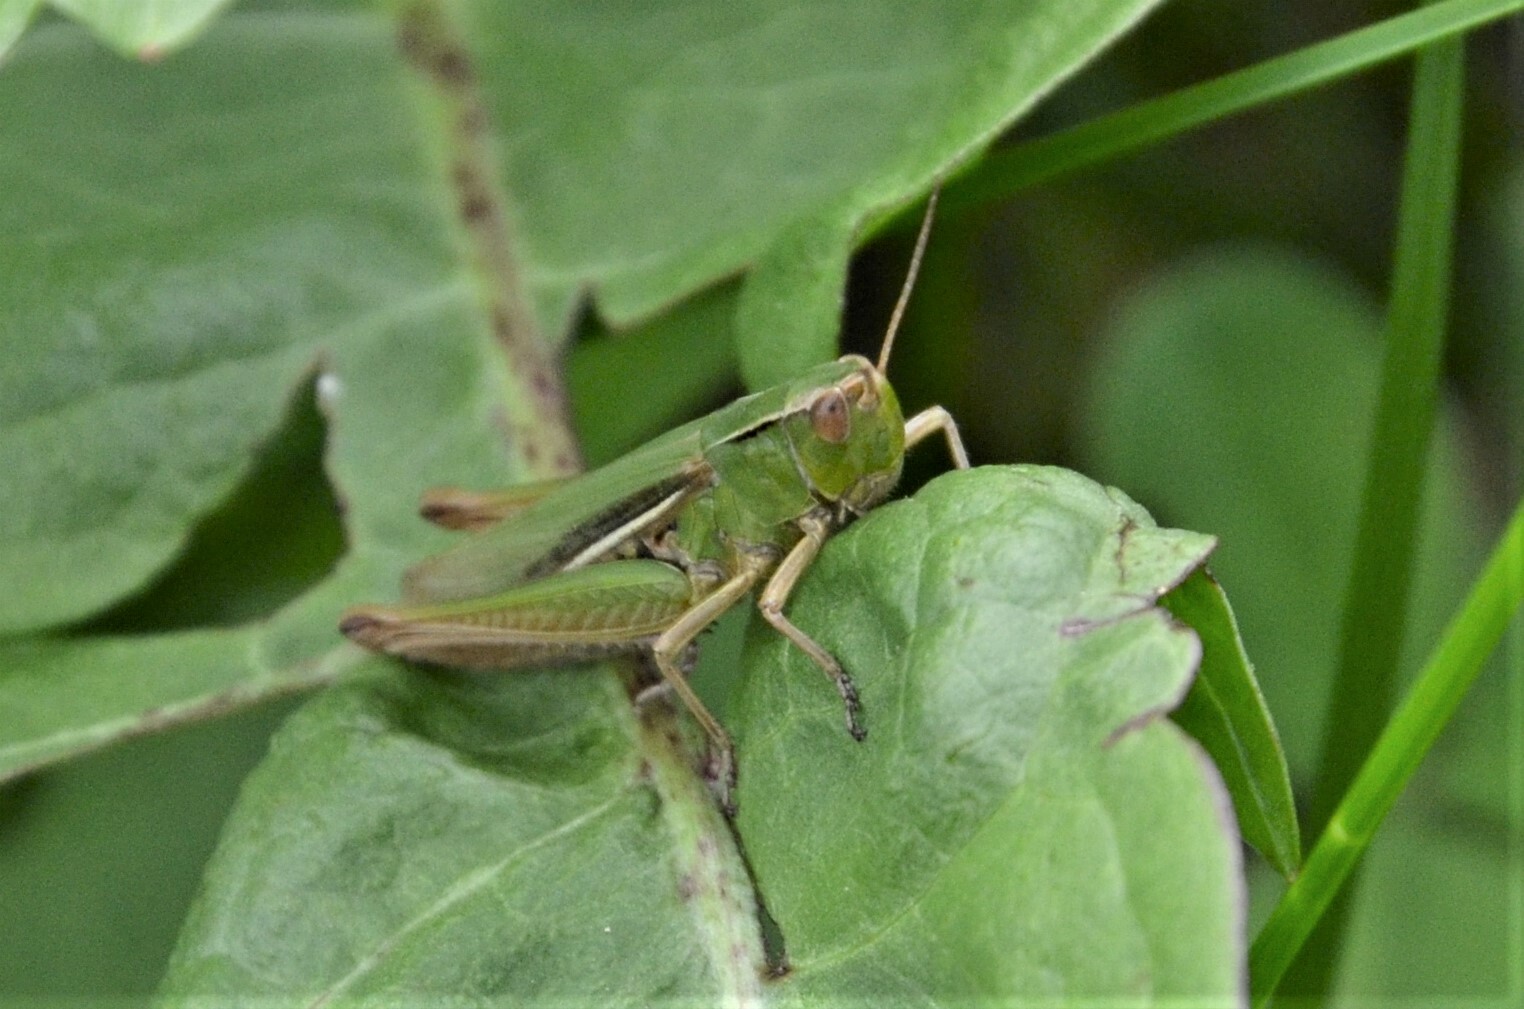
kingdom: Animalia
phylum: Arthropoda
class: Insecta
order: Orthoptera
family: Acrididae
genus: Chorthippus
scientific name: Chorthippus albomarginatus
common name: Lesser marsh grasshopper
